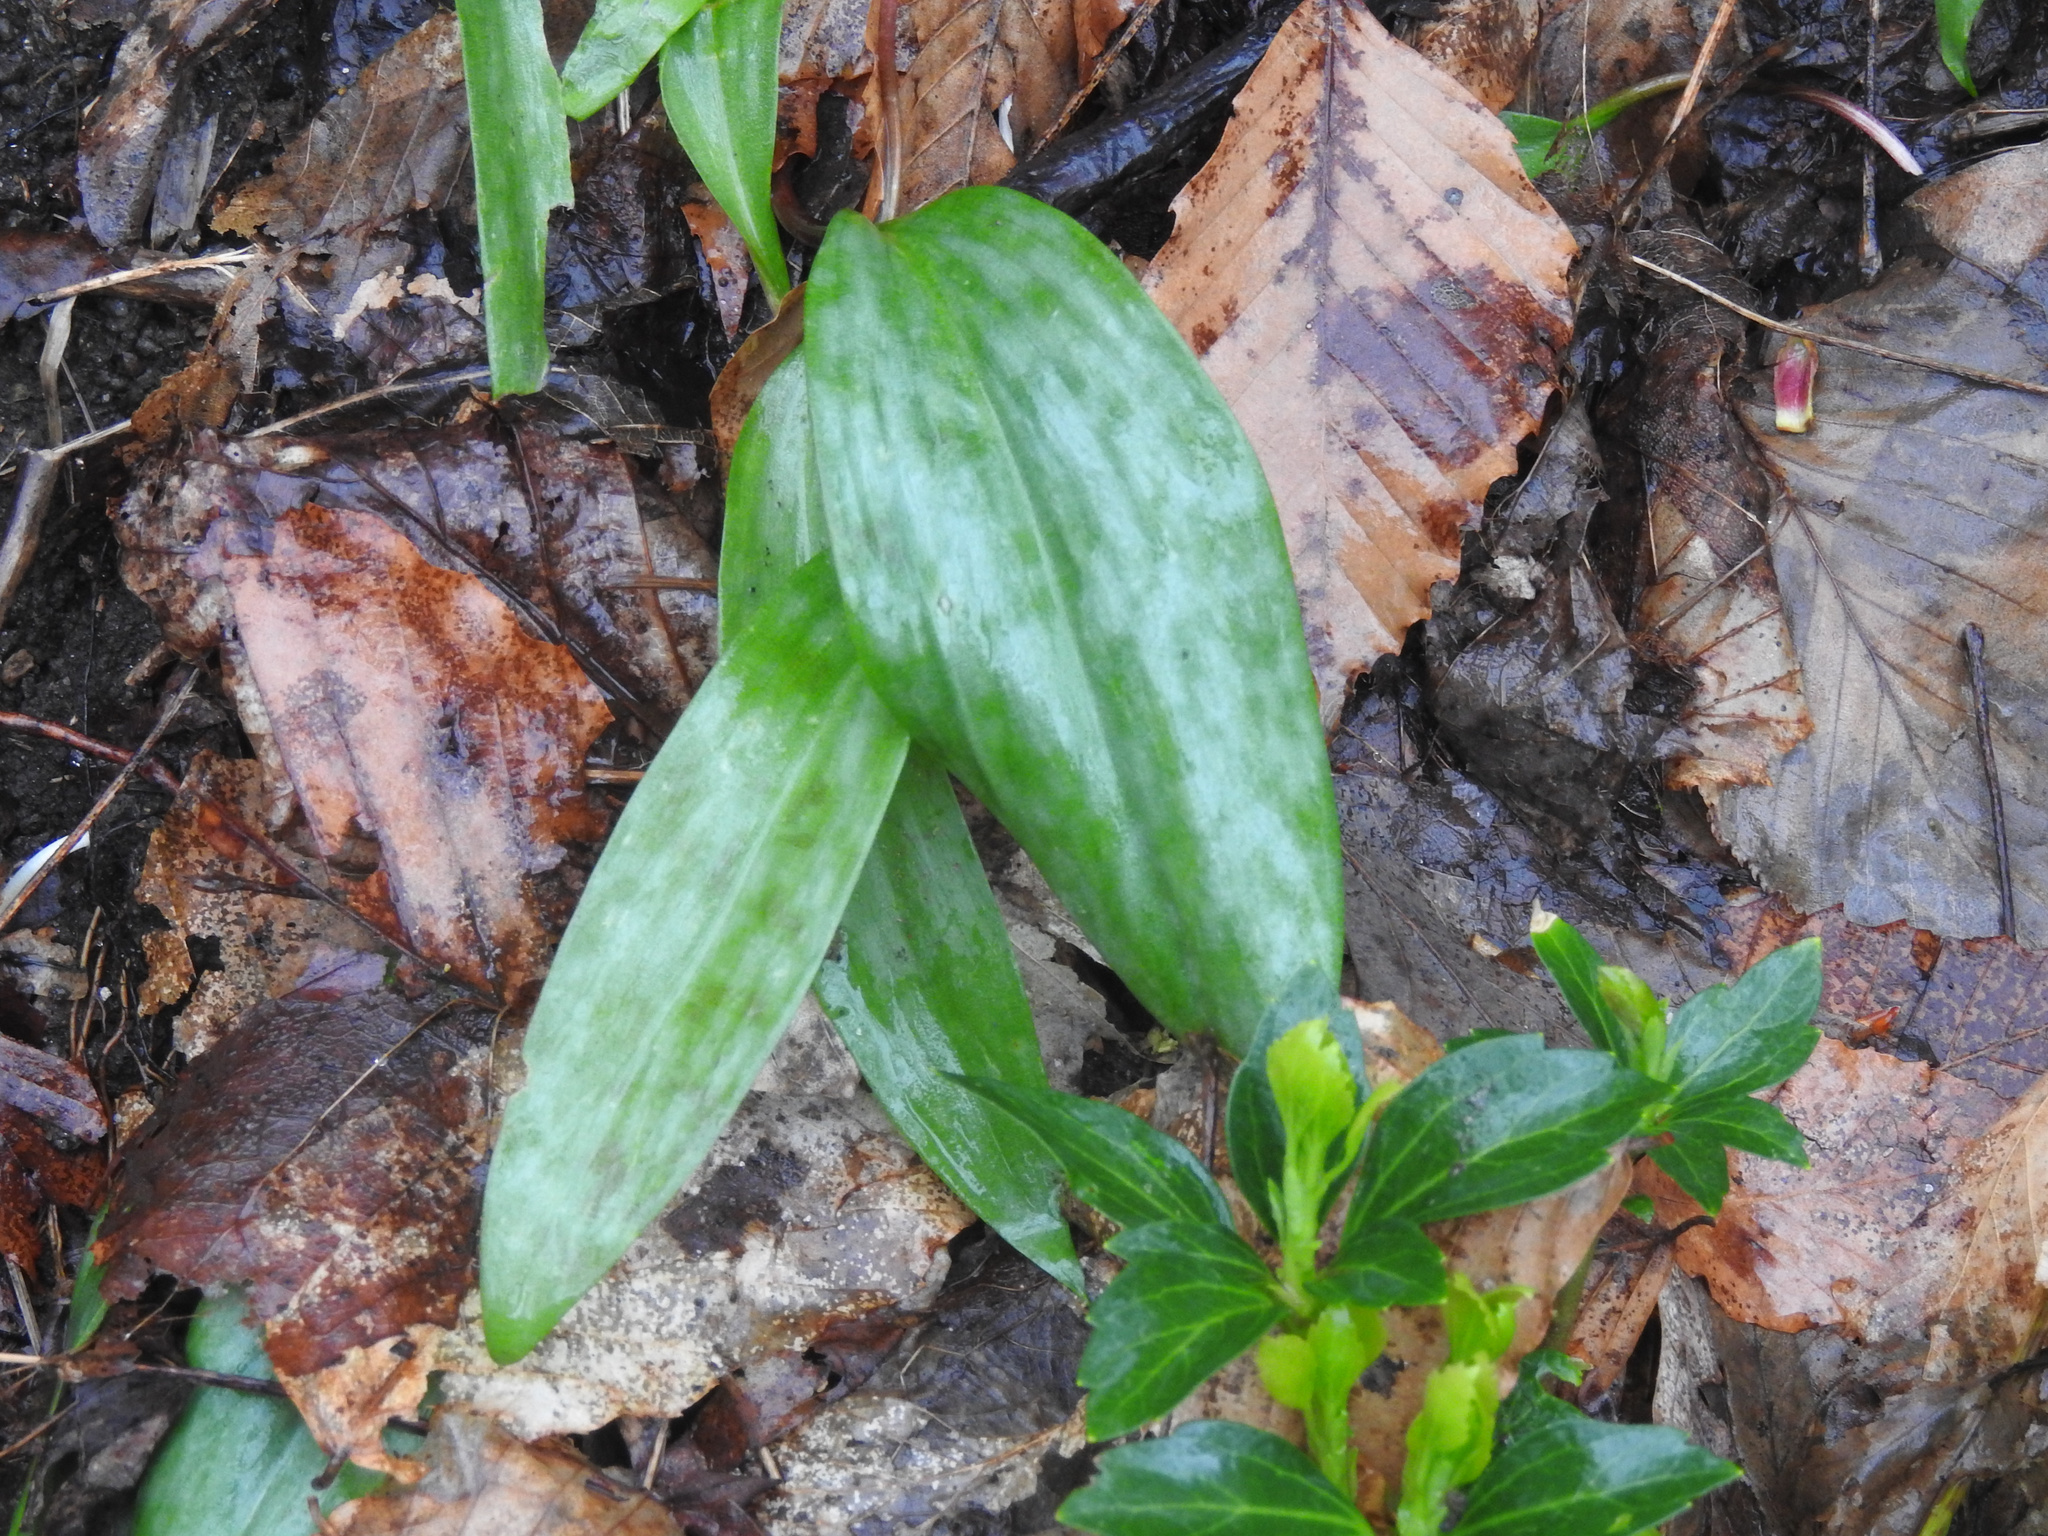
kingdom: Plantae
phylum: Tracheophyta
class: Liliopsida
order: Liliales
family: Liliaceae
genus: Erythronium
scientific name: Erythronium americanum
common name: Yellow adder's-tongue
